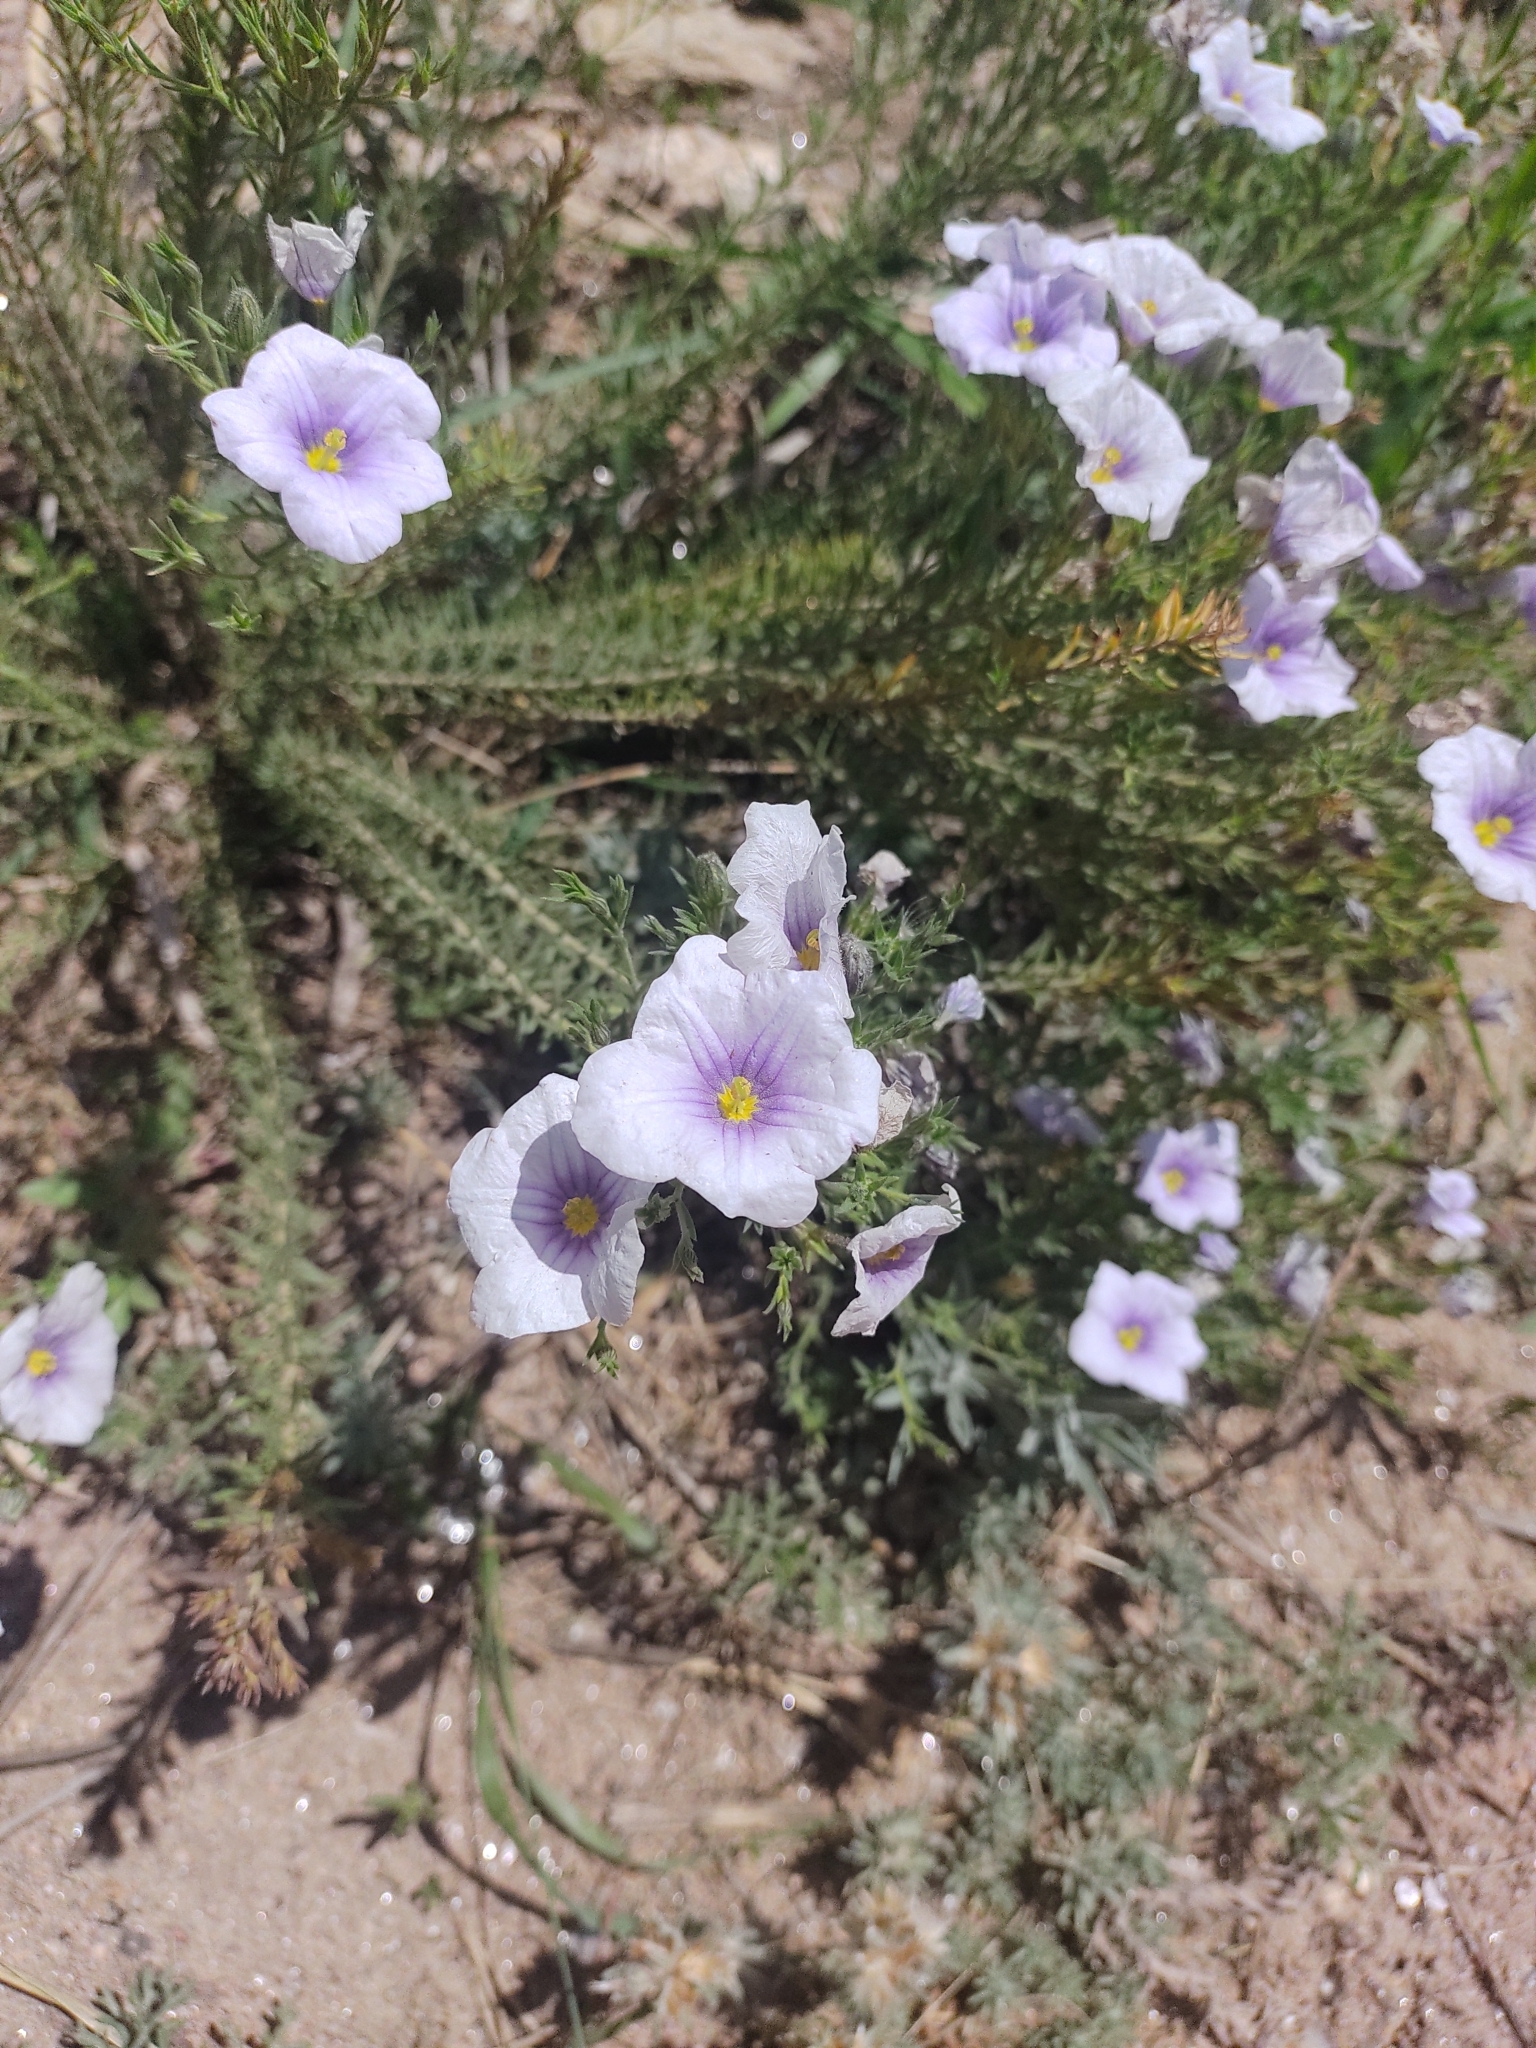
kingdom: Plantae
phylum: Tracheophyta
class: Magnoliopsida
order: Solanales
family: Solanaceae
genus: Nierembergia
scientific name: Nierembergia linariifolia
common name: Dwarf cupflower
